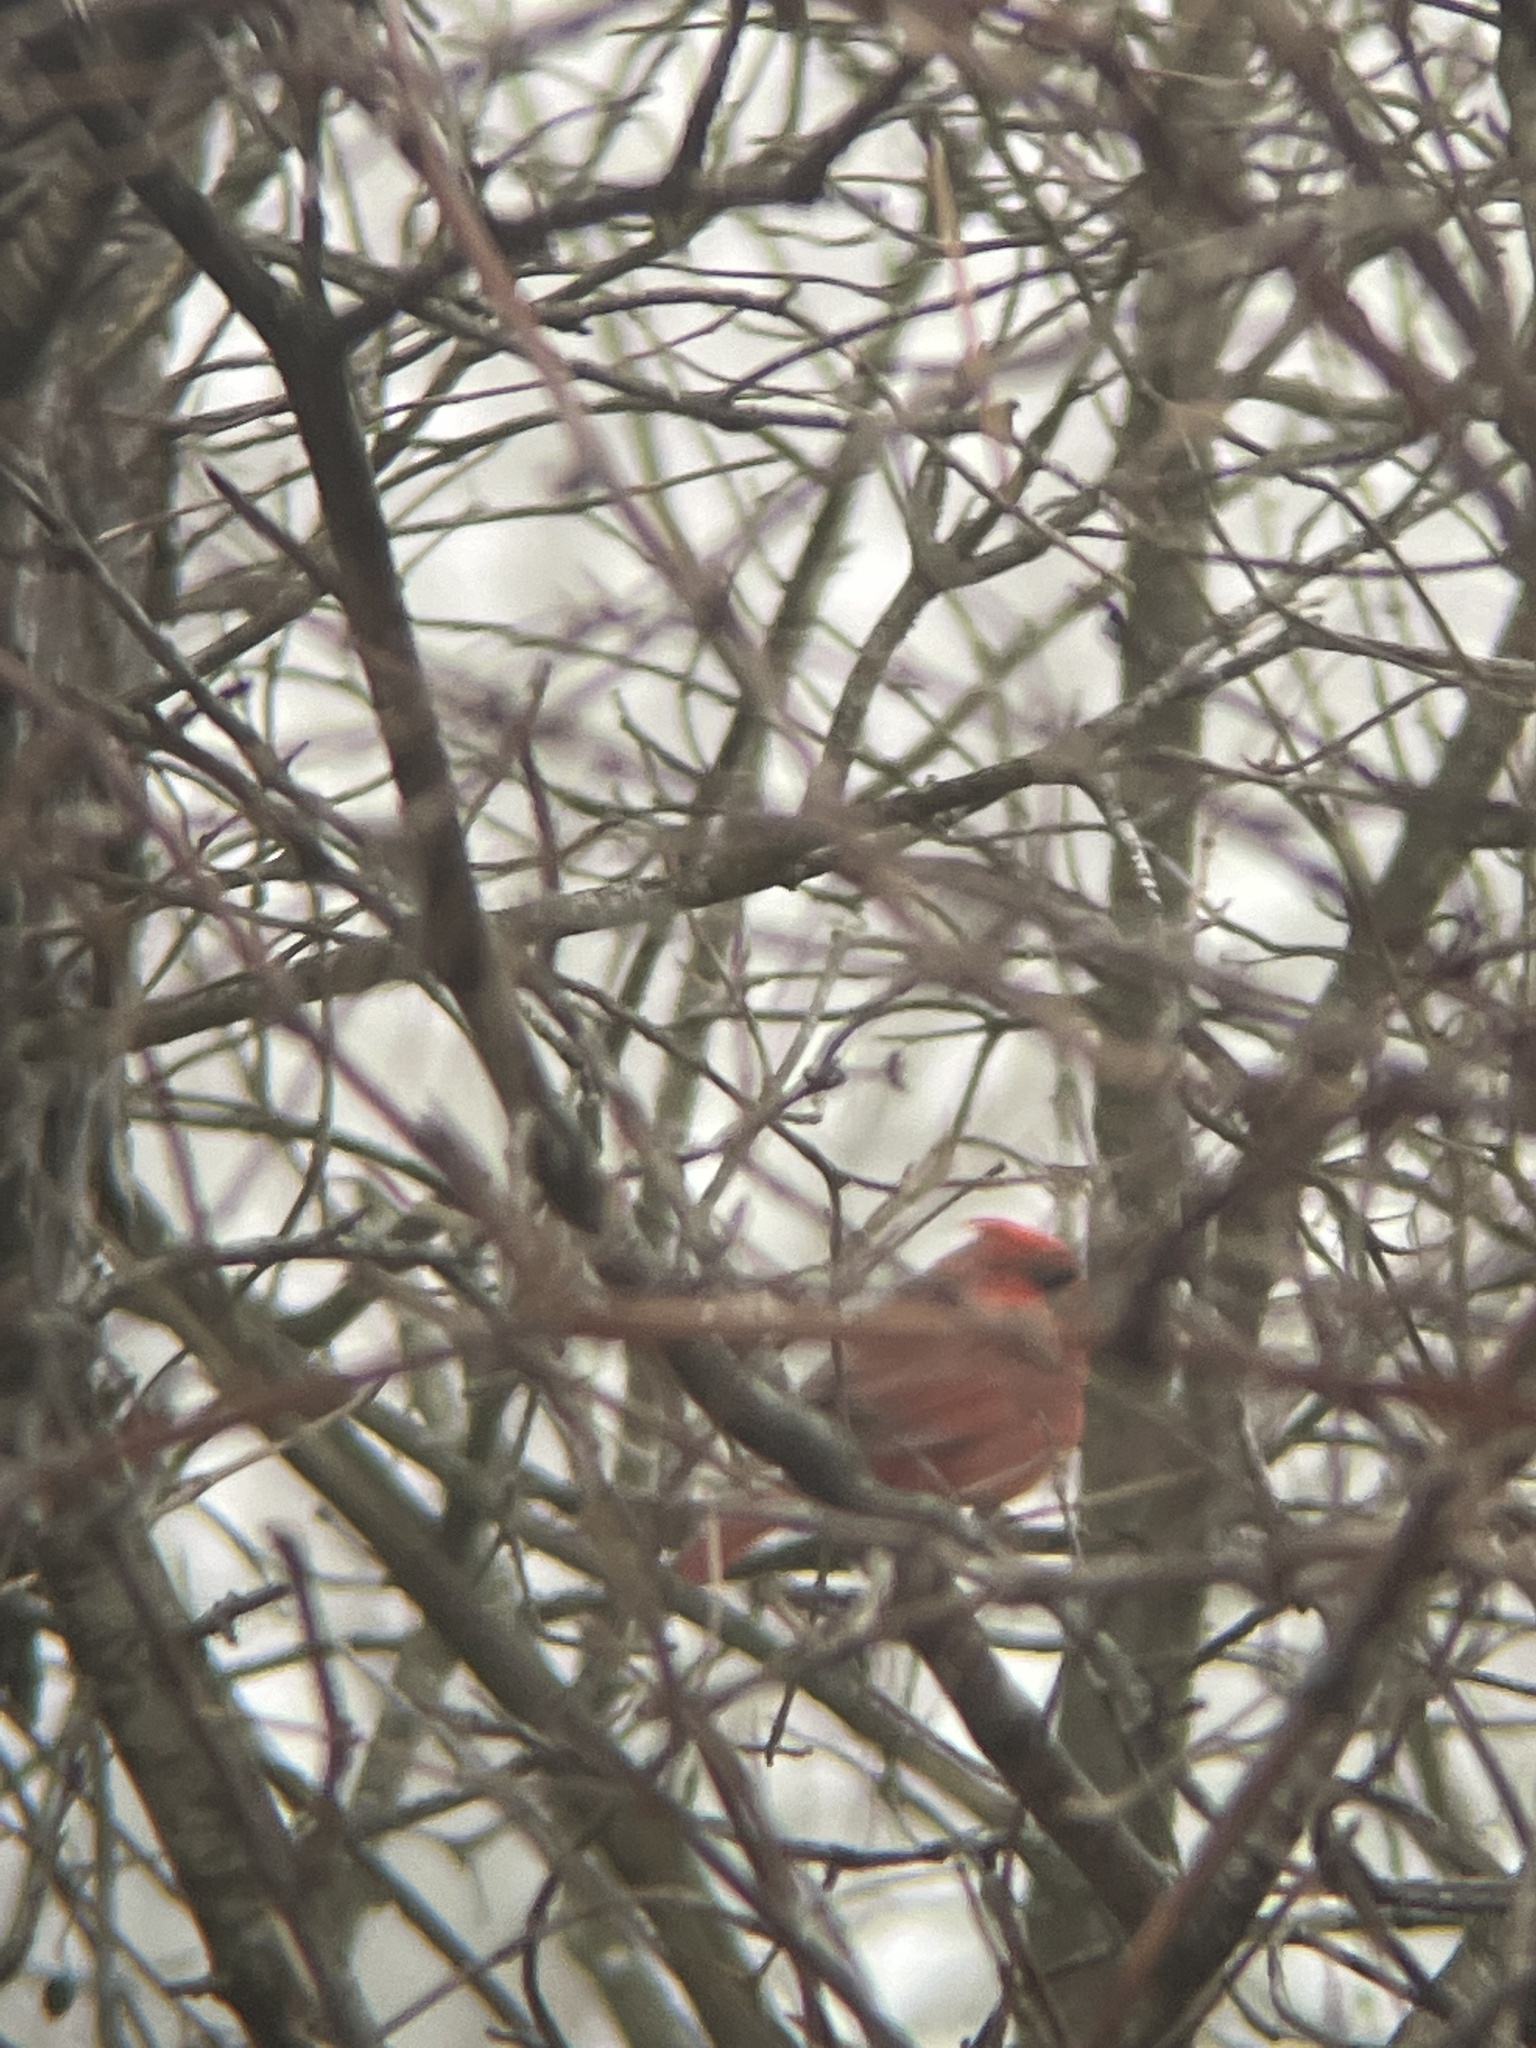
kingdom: Animalia
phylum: Chordata
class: Aves
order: Passeriformes
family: Cardinalidae
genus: Cardinalis
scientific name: Cardinalis cardinalis
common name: Northern cardinal
